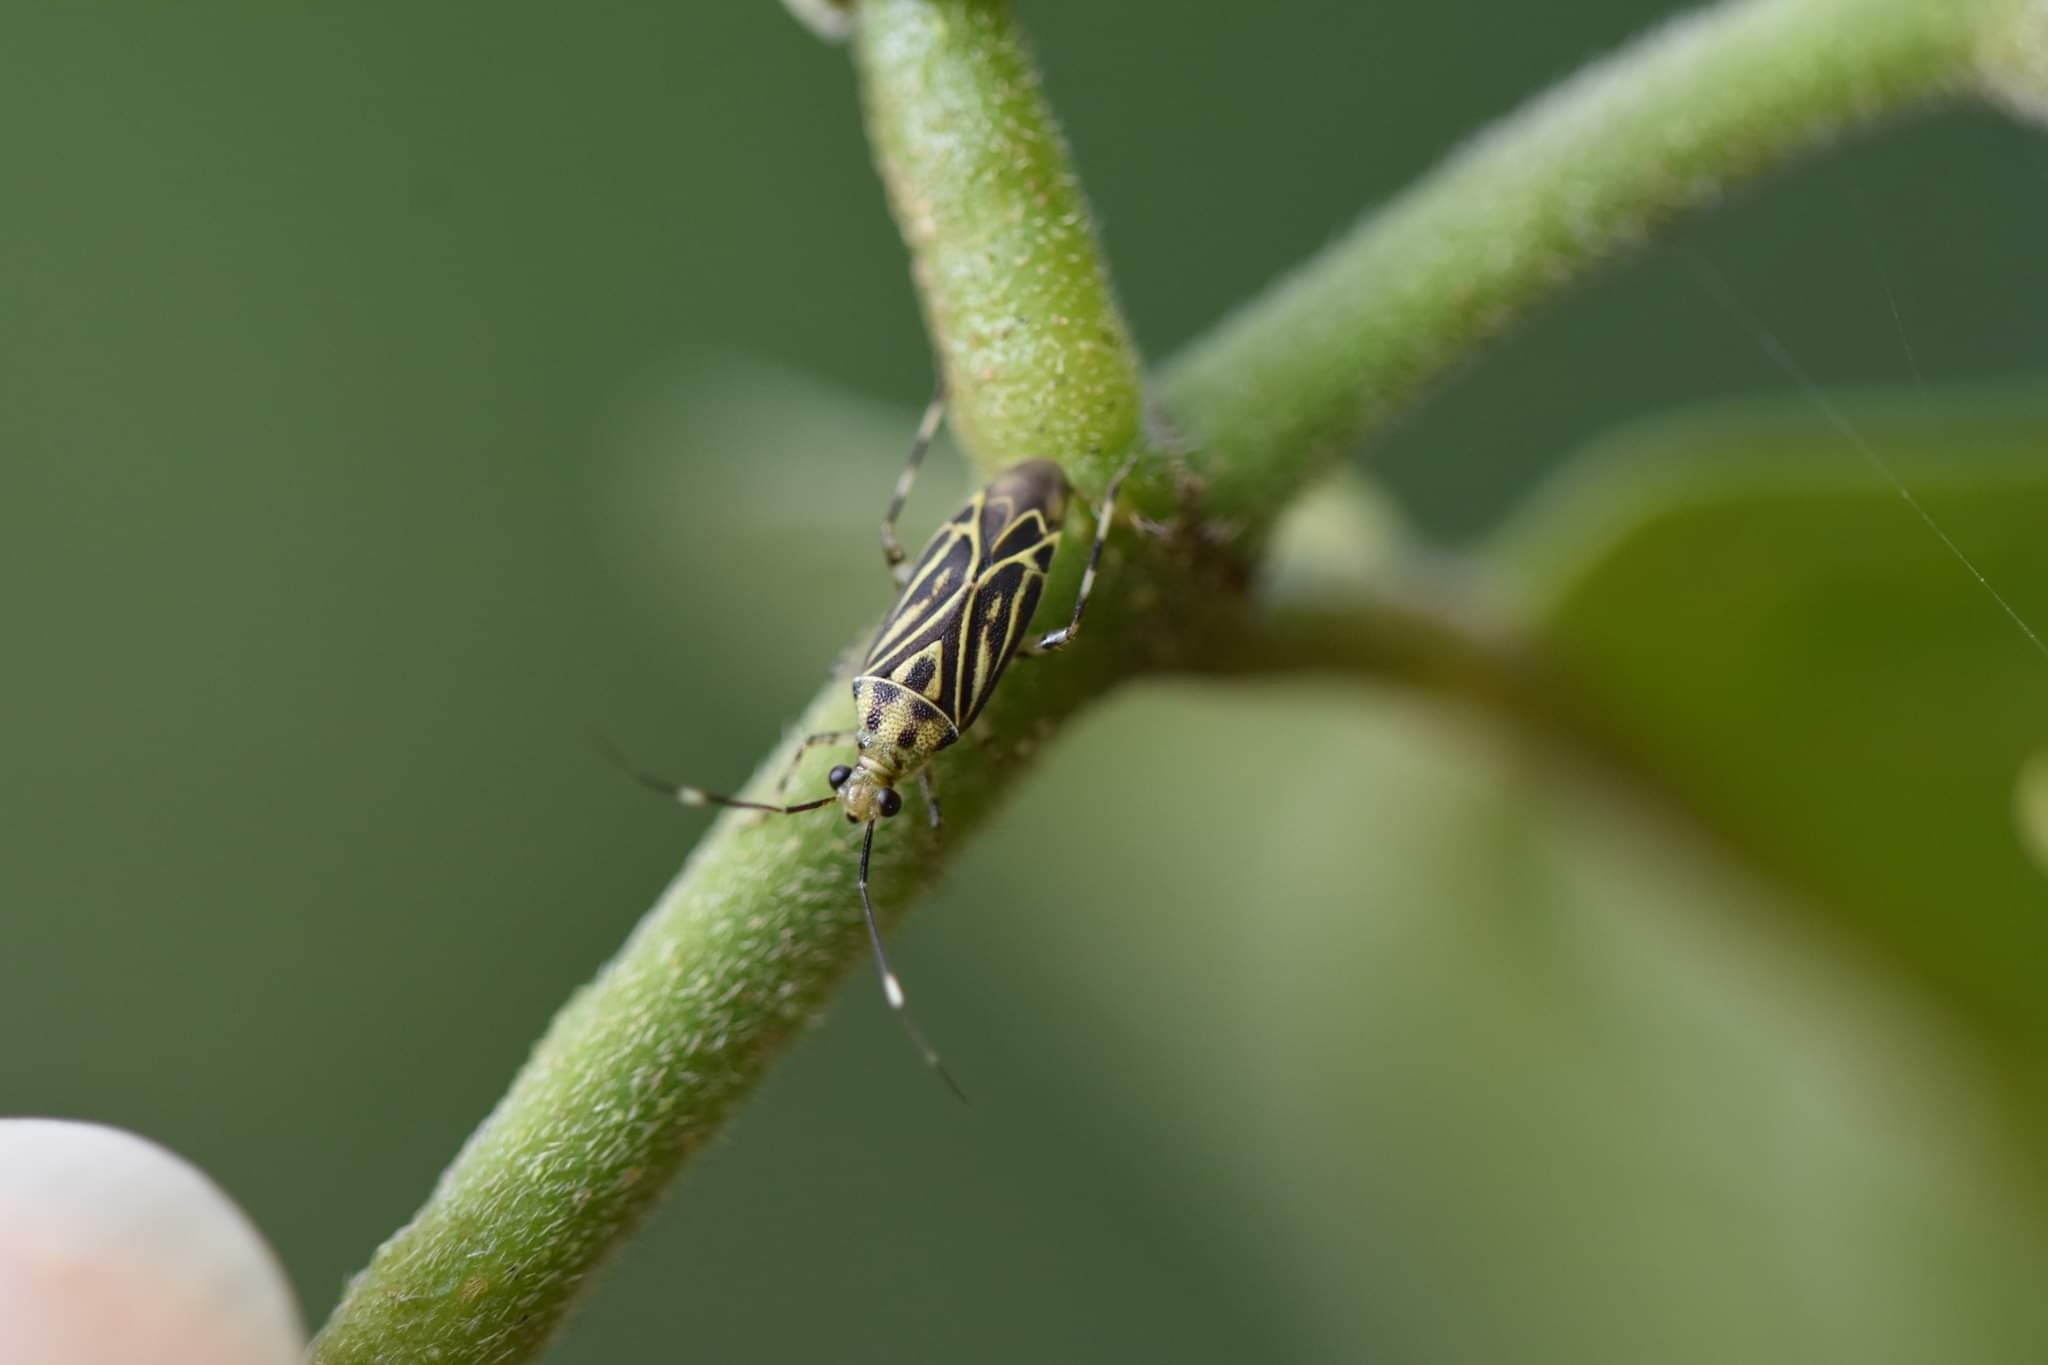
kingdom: Animalia
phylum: Arthropoda
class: Insecta
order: Hemiptera
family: Miridae
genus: Piasus
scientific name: Piasus cribricollis
